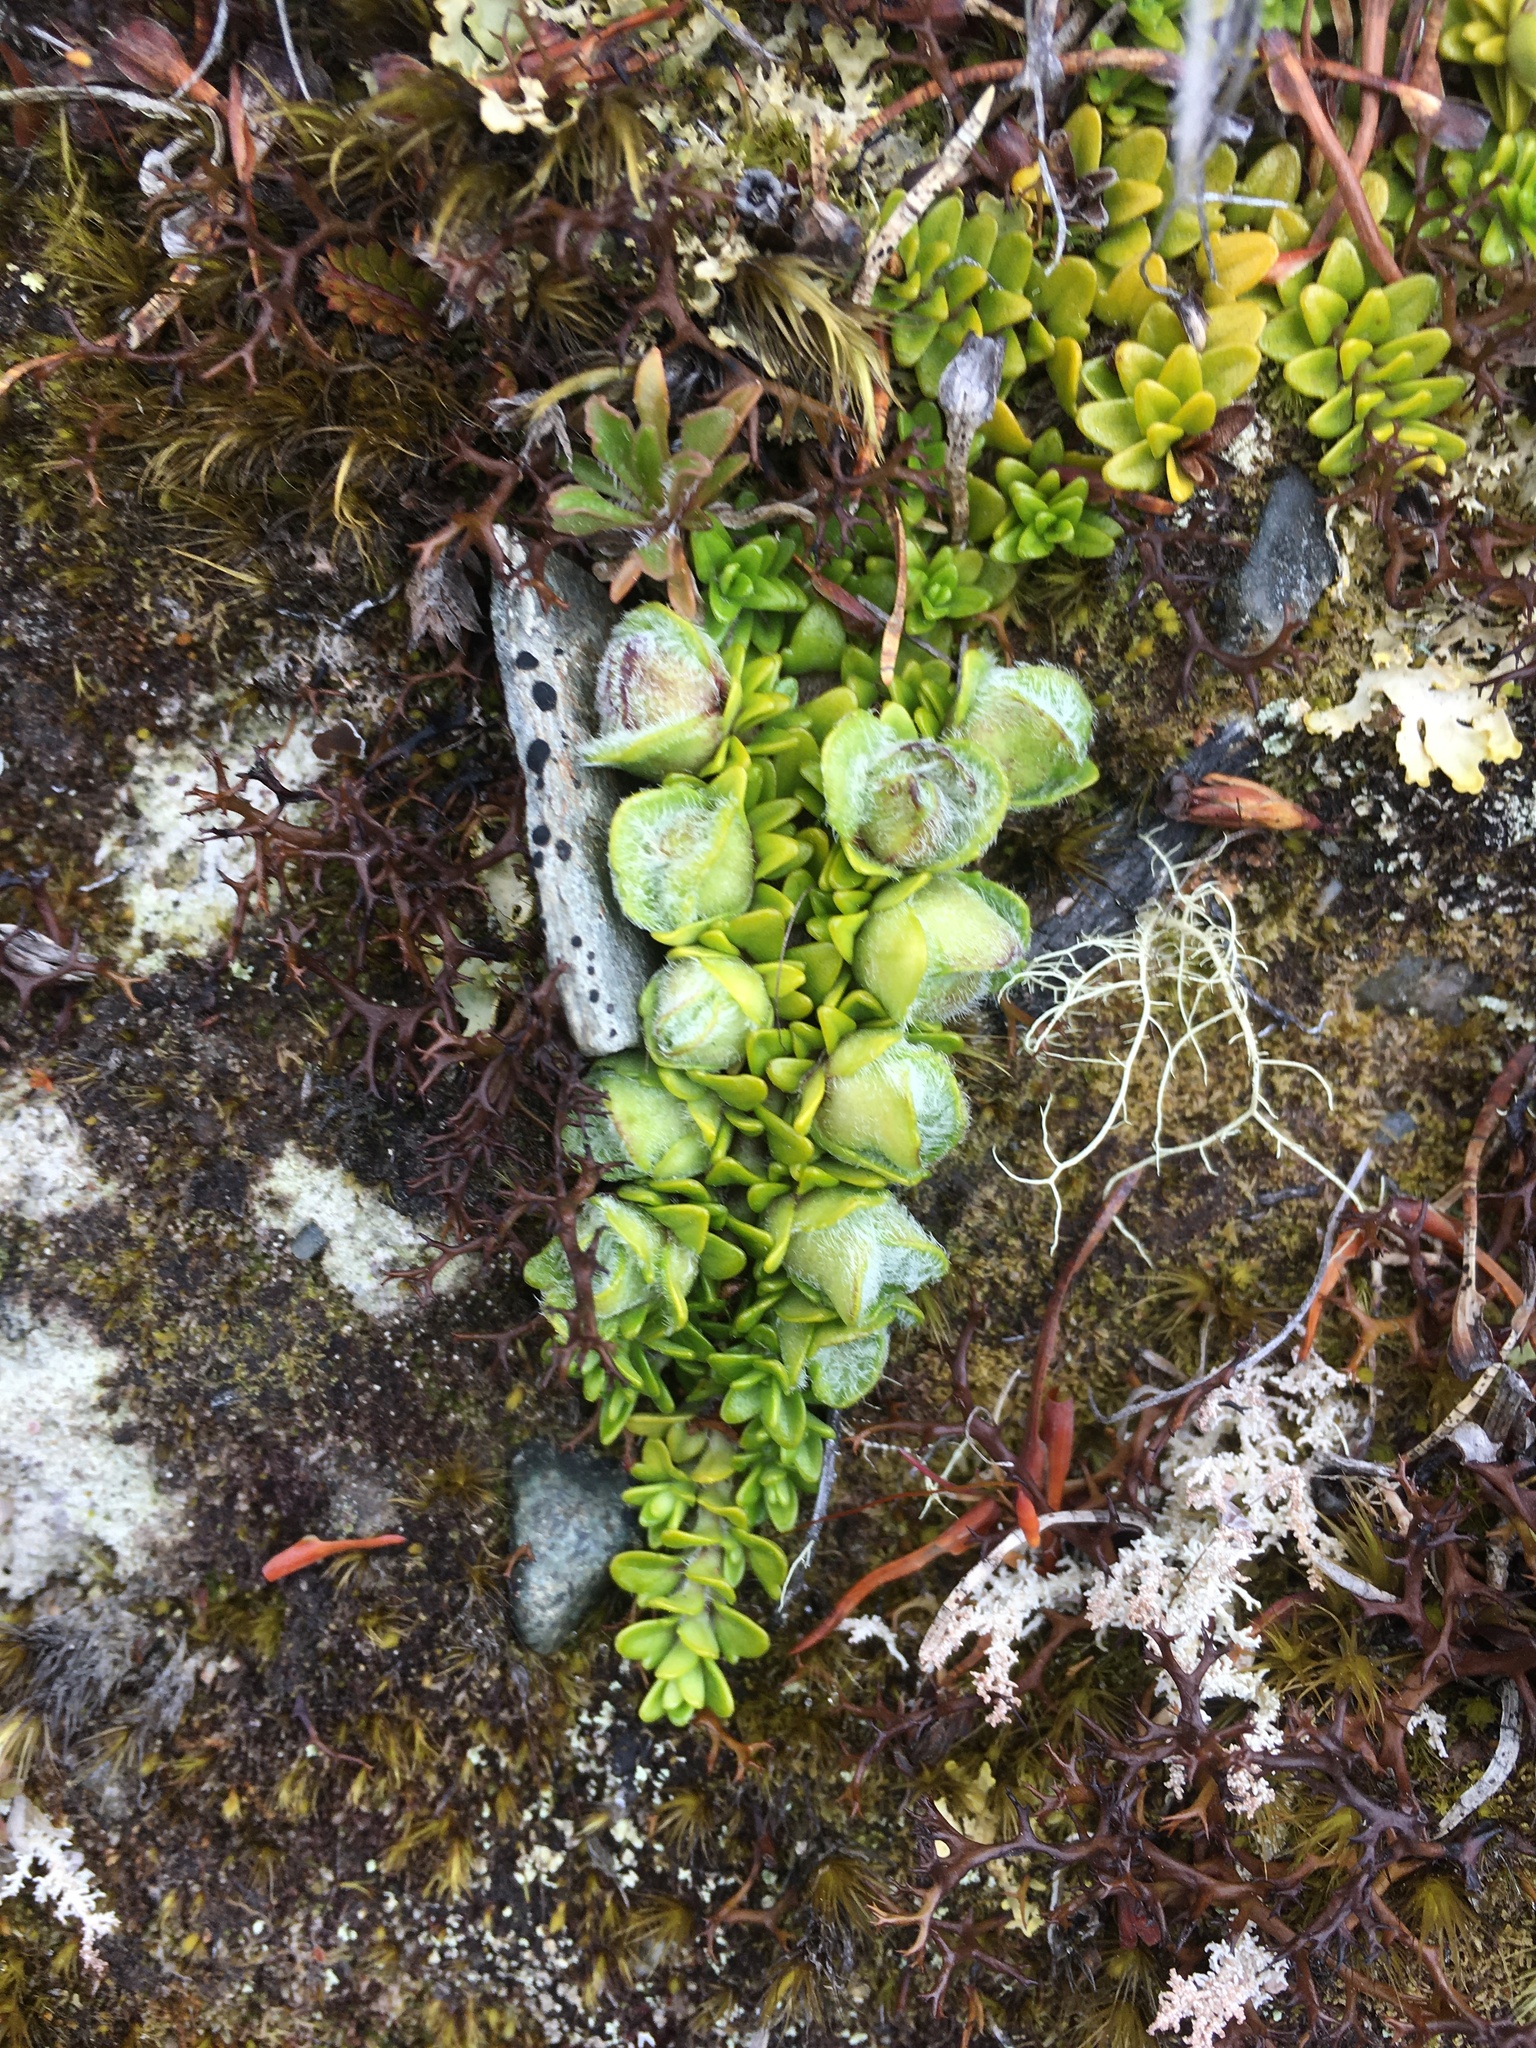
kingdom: Plantae
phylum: Tracheophyta
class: Magnoliopsida
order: Lamiales
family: Plantaginaceae
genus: Ourisia
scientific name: Ourisia caespitosa
